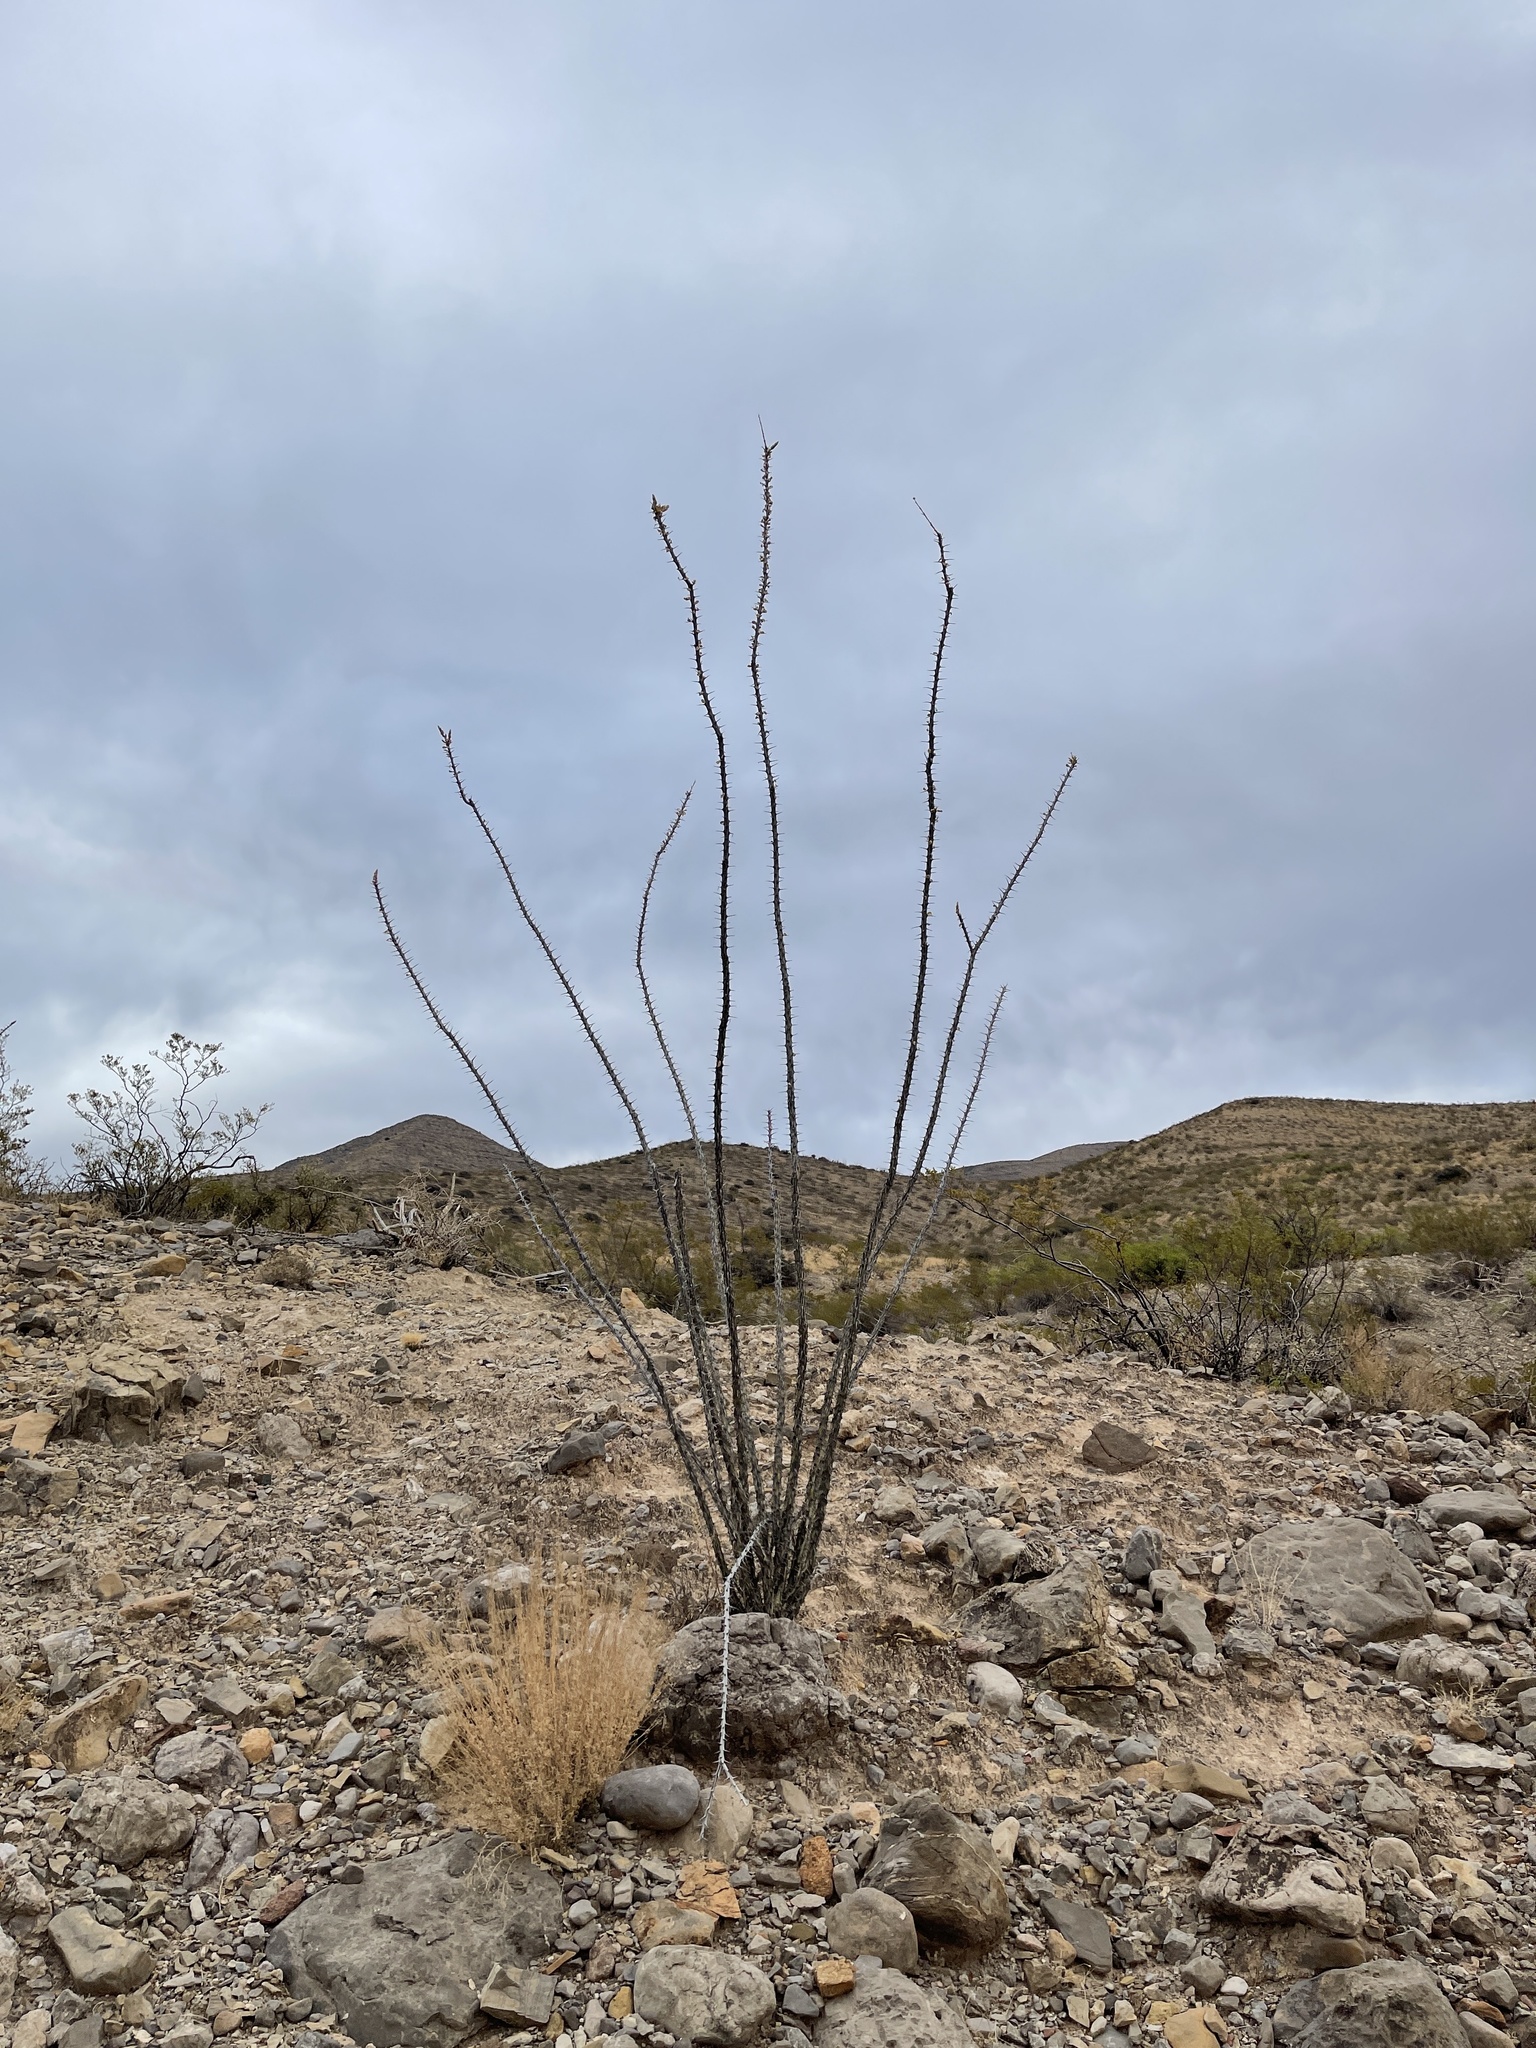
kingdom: Plantae
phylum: Tracheophyta
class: Magnoliopsida
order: Ericales
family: Fouquieriaceae
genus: Fouquieria
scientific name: Fouquieria splendens
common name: Vine-cactus
